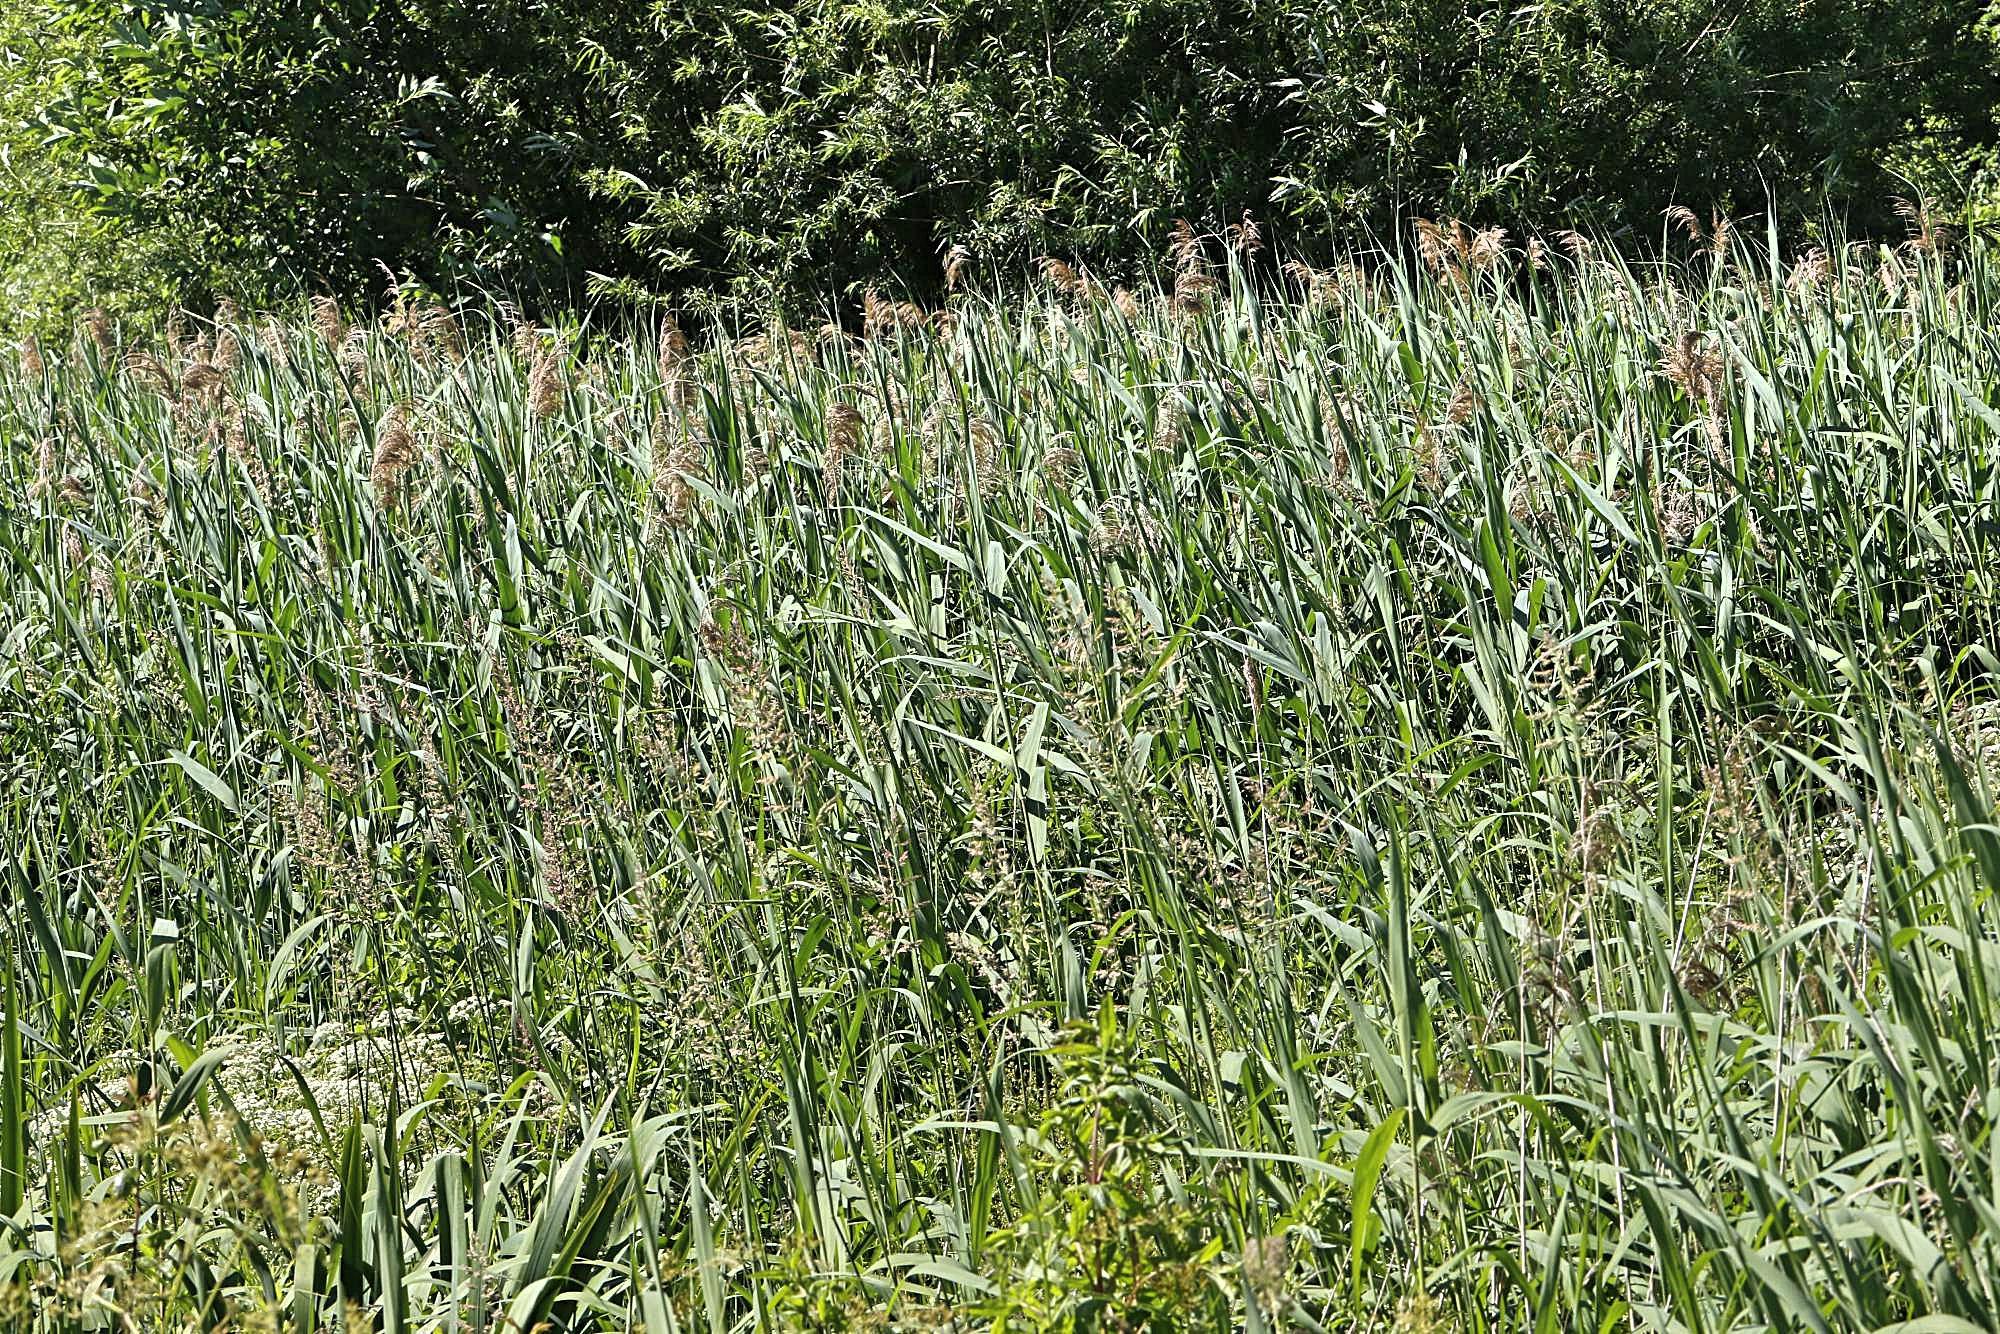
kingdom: Plantae
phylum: Tracheophyta
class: Liliopsida
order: Poales
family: Poaceae
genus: Phragmites
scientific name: Phragmites australis
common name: Common reed
